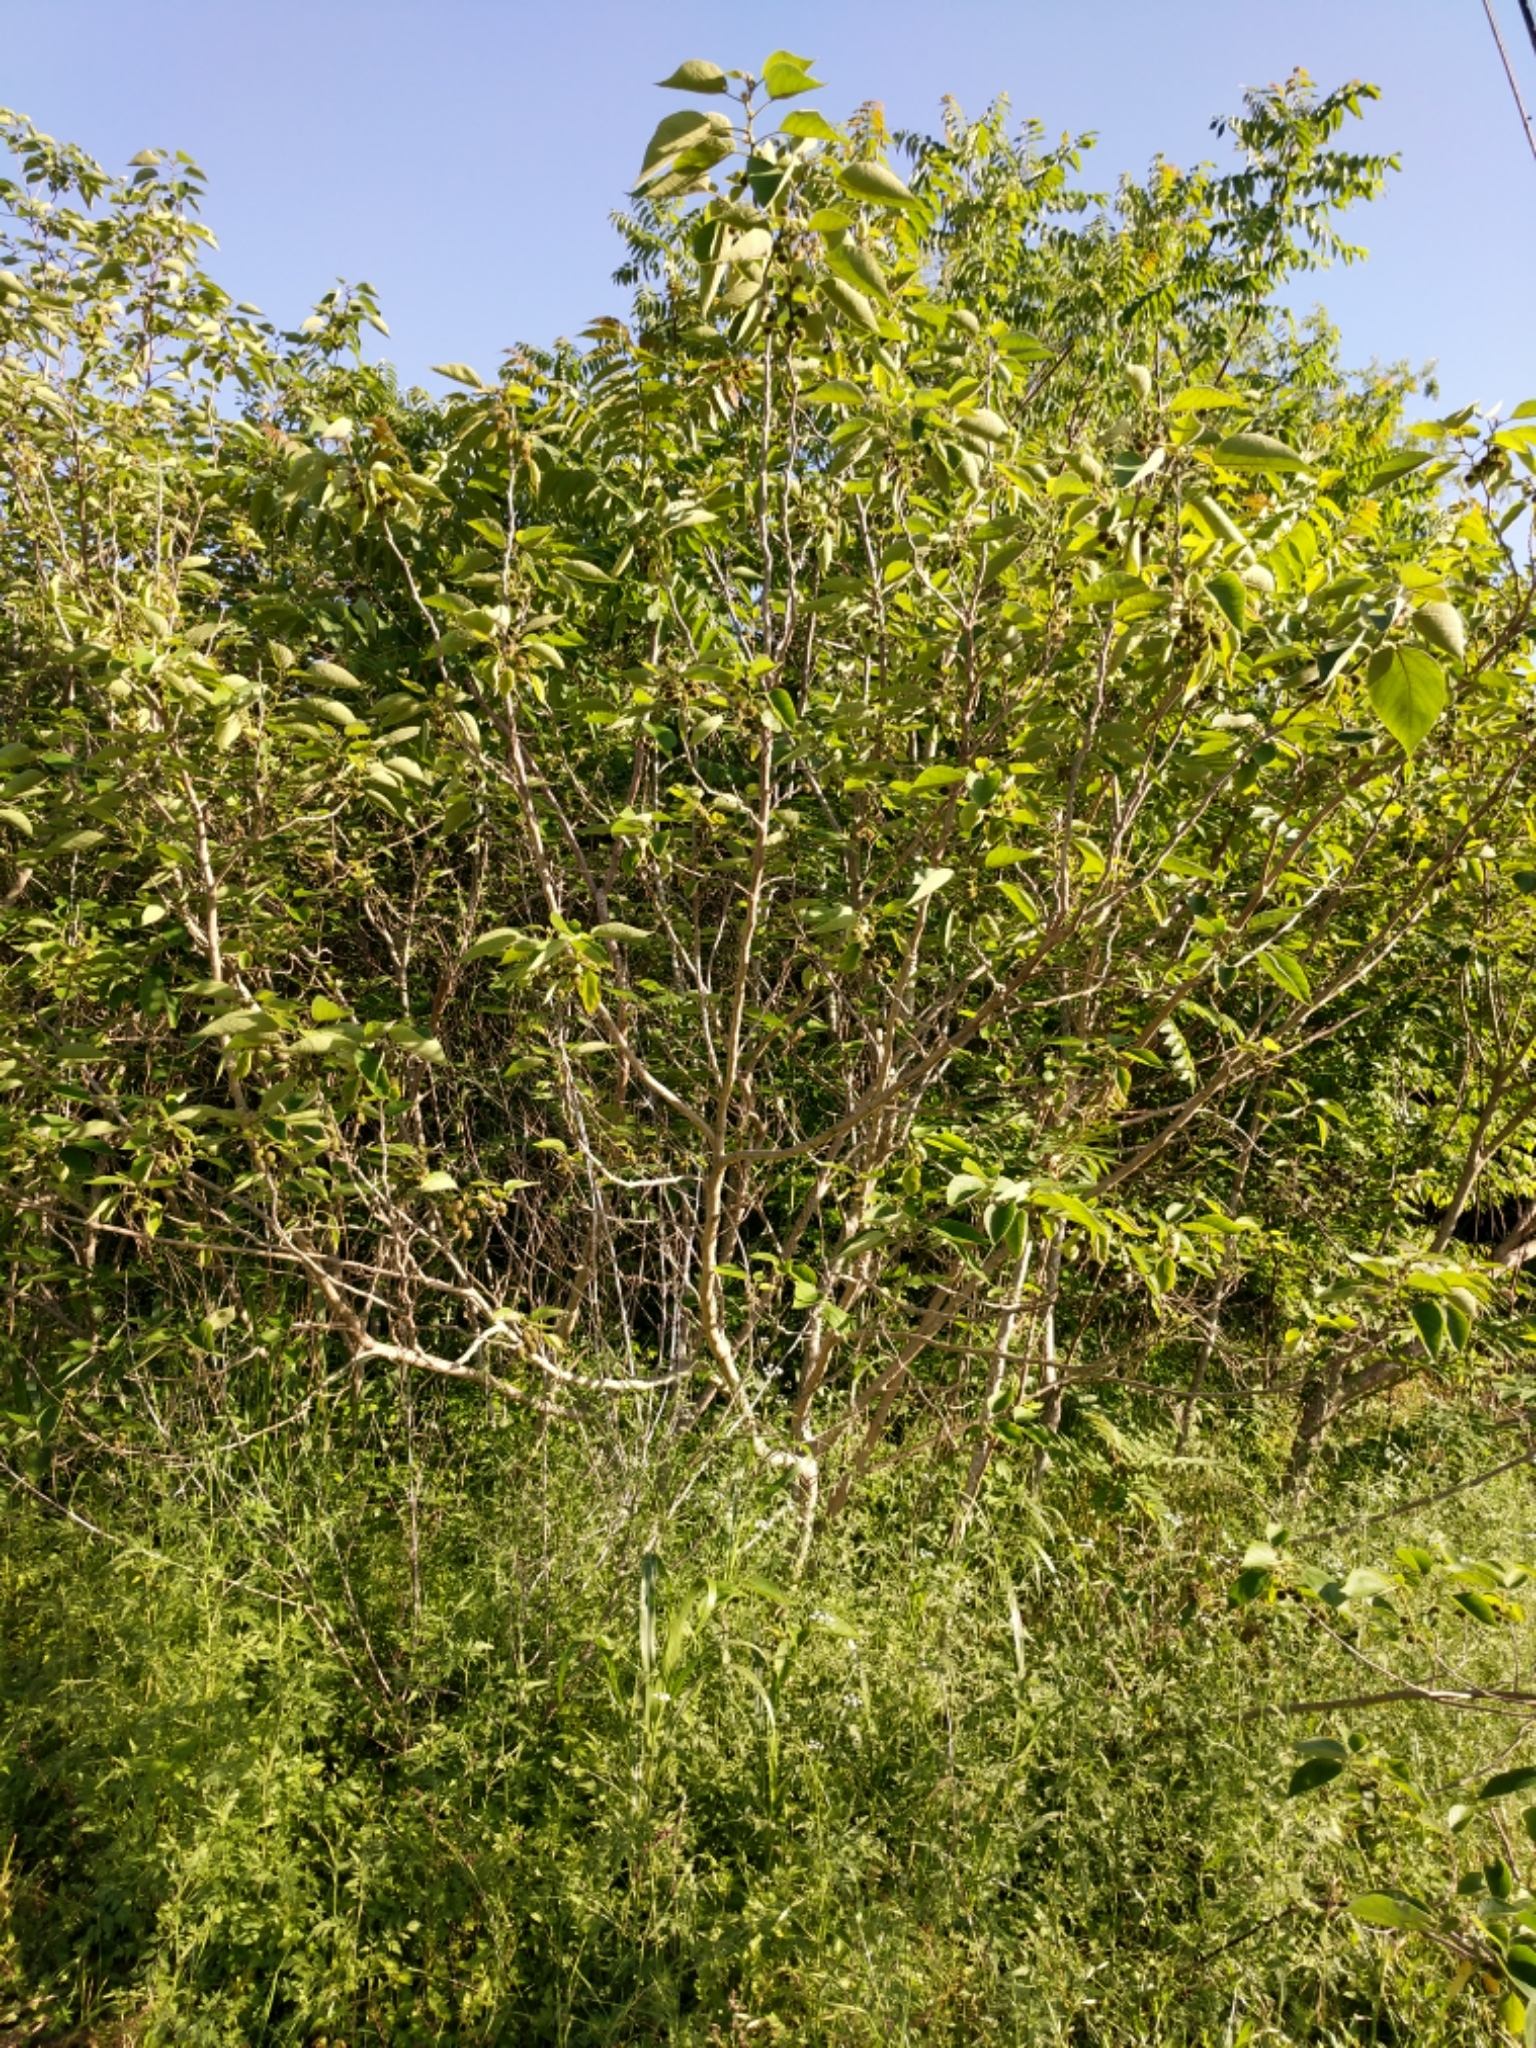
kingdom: Plantae
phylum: Tracheophyta
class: Magnoliopsida
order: Rosales
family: Moraceae
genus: Broussonetia
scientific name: Broussonetia papyrifera
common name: Paper mulberry
